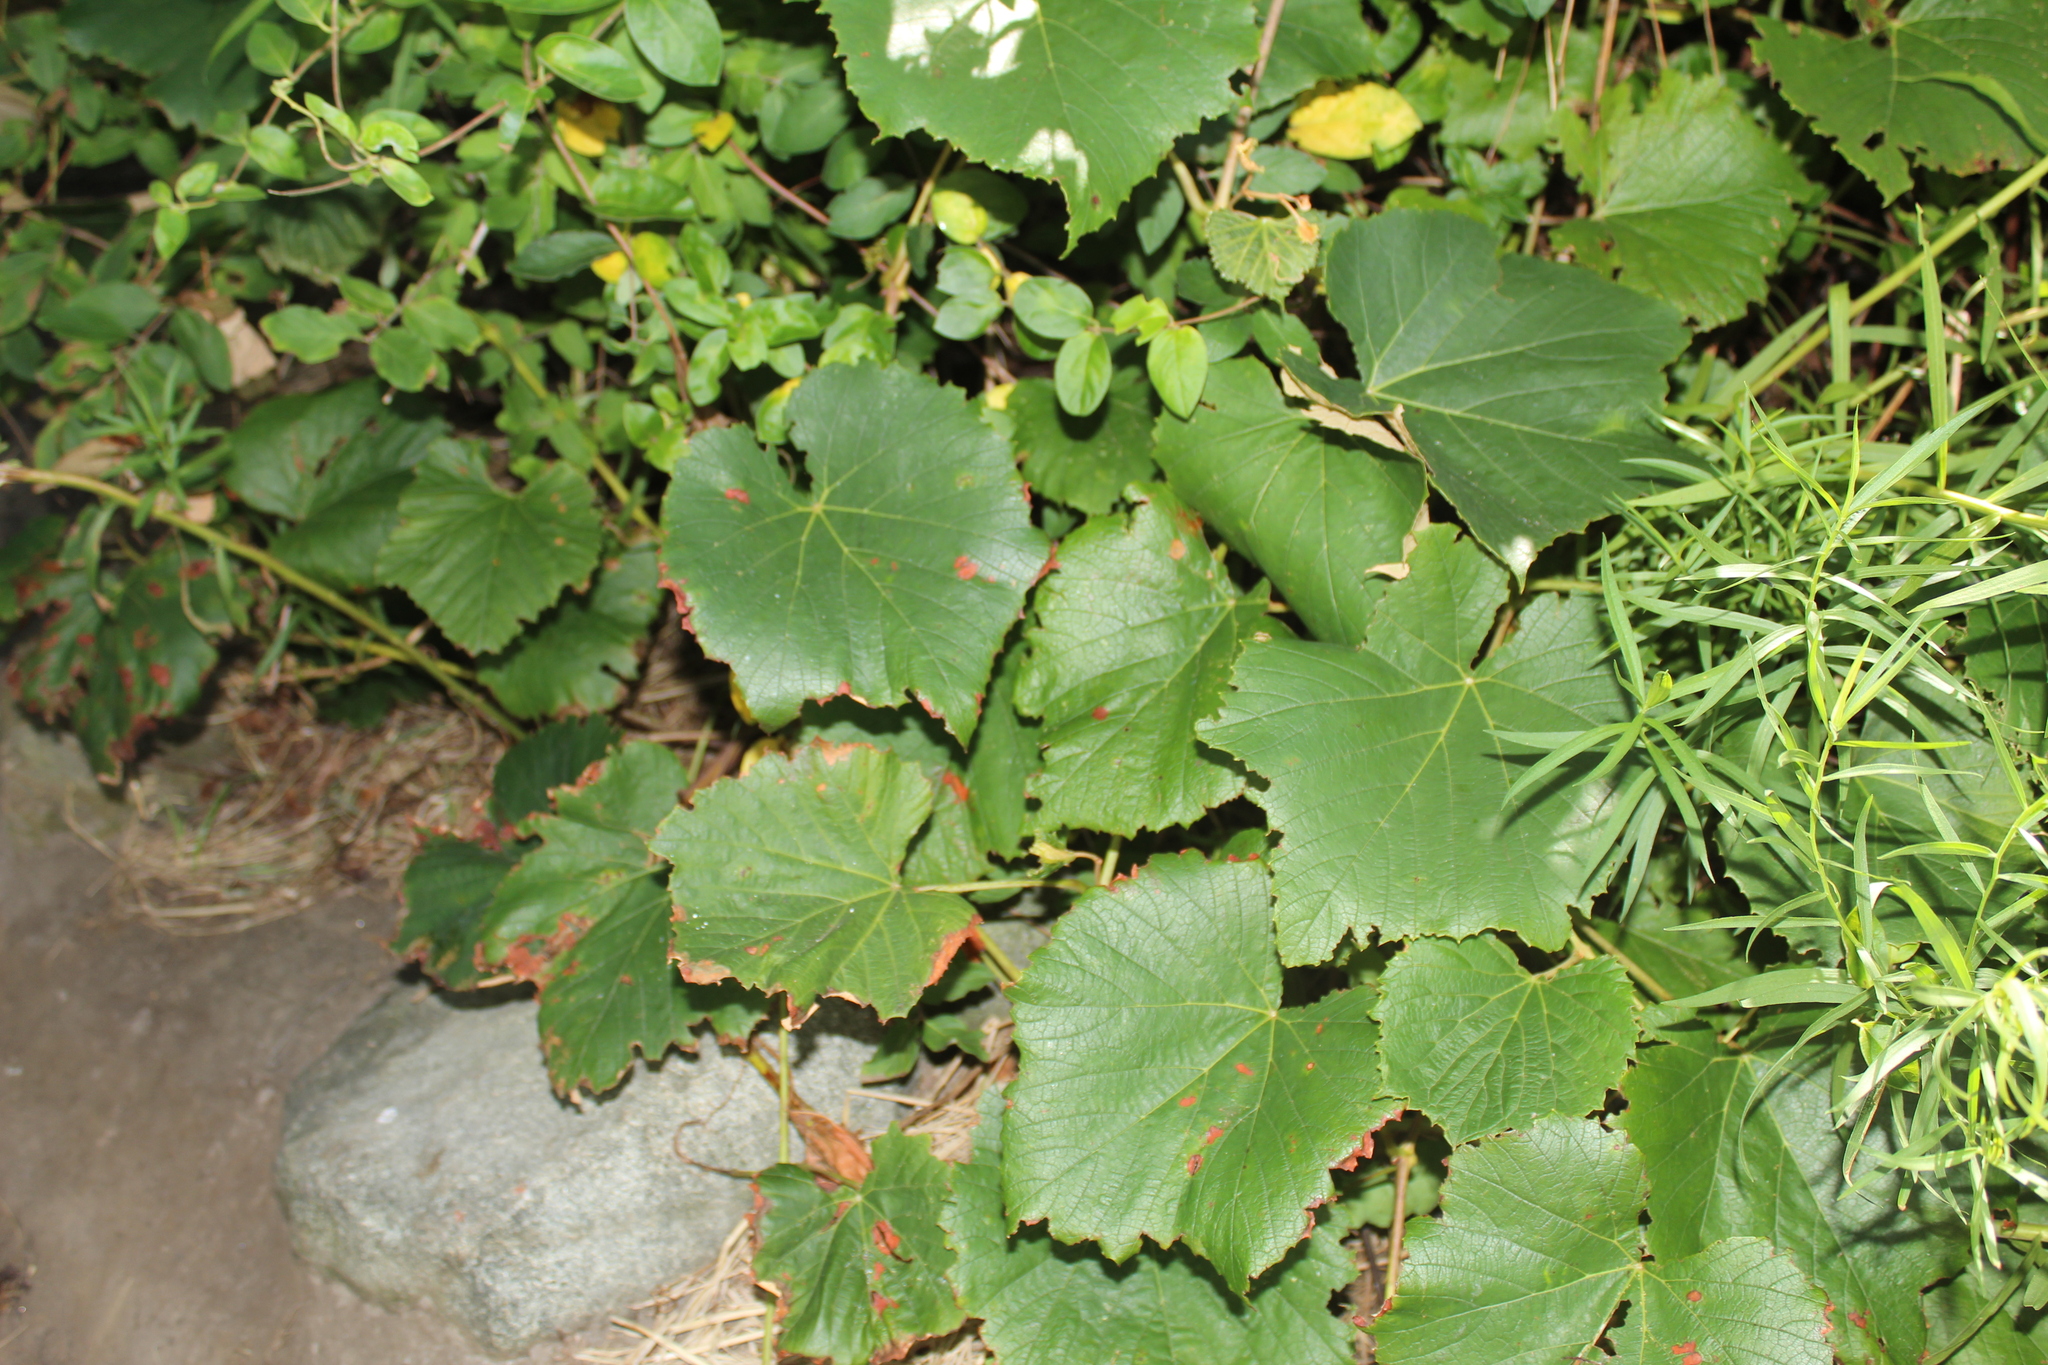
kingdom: Plantae
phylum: Tracheophyta
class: Magnoliopsida
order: Vitales
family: Vitaceae
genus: Vitis
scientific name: Vitis labrusca
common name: Concord grape
